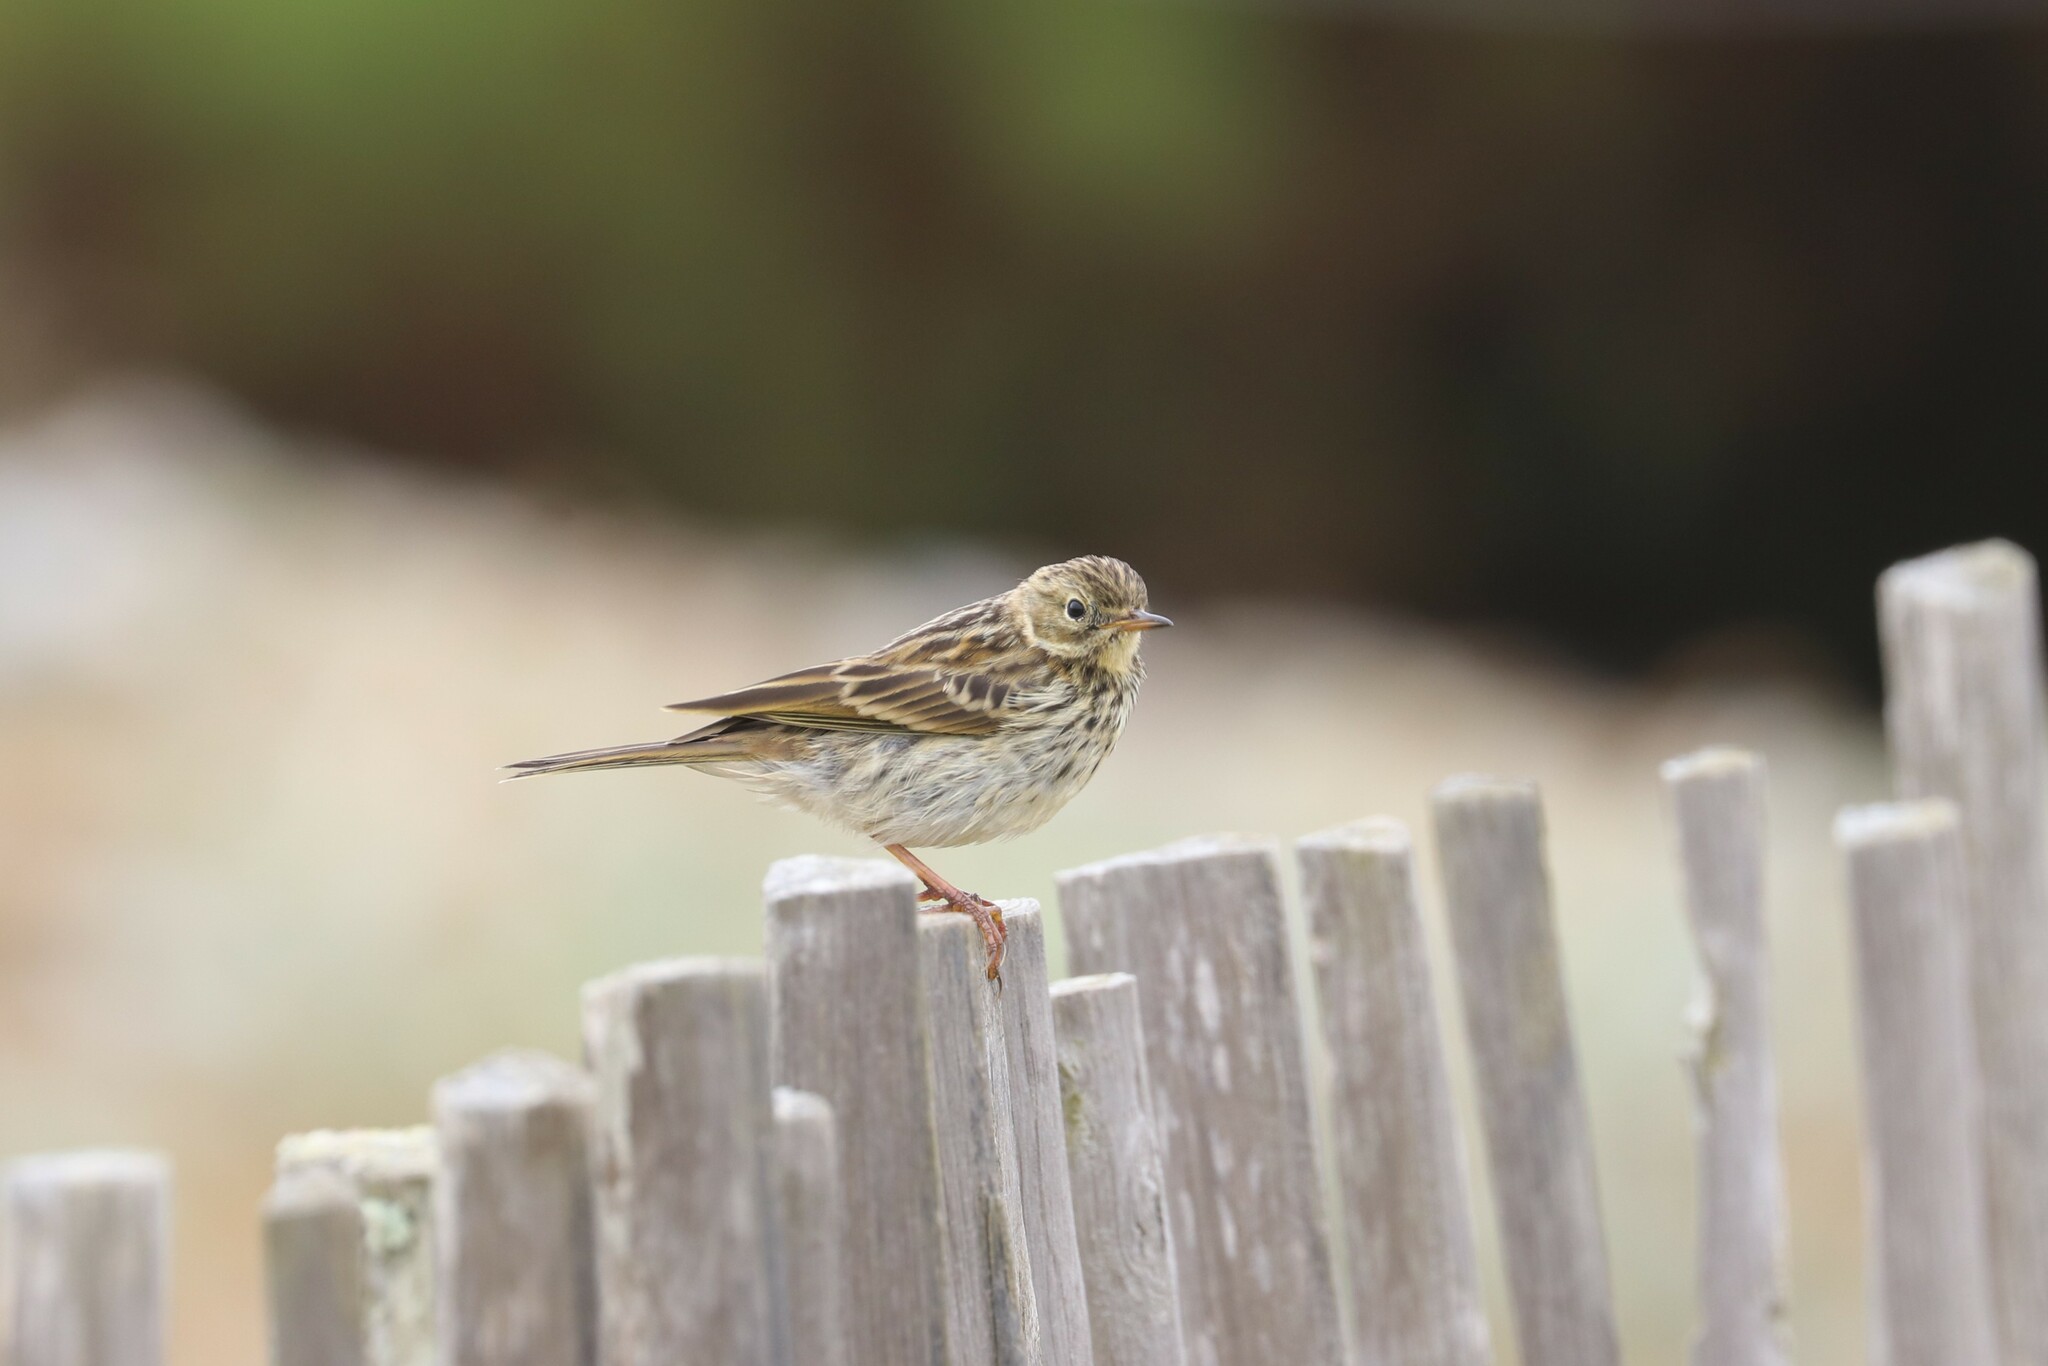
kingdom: Animalia
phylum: Chordata
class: Aves
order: Passeriformes
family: Motacillidae
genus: Anthus
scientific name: Anthus pratensis
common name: Meadow pipit
